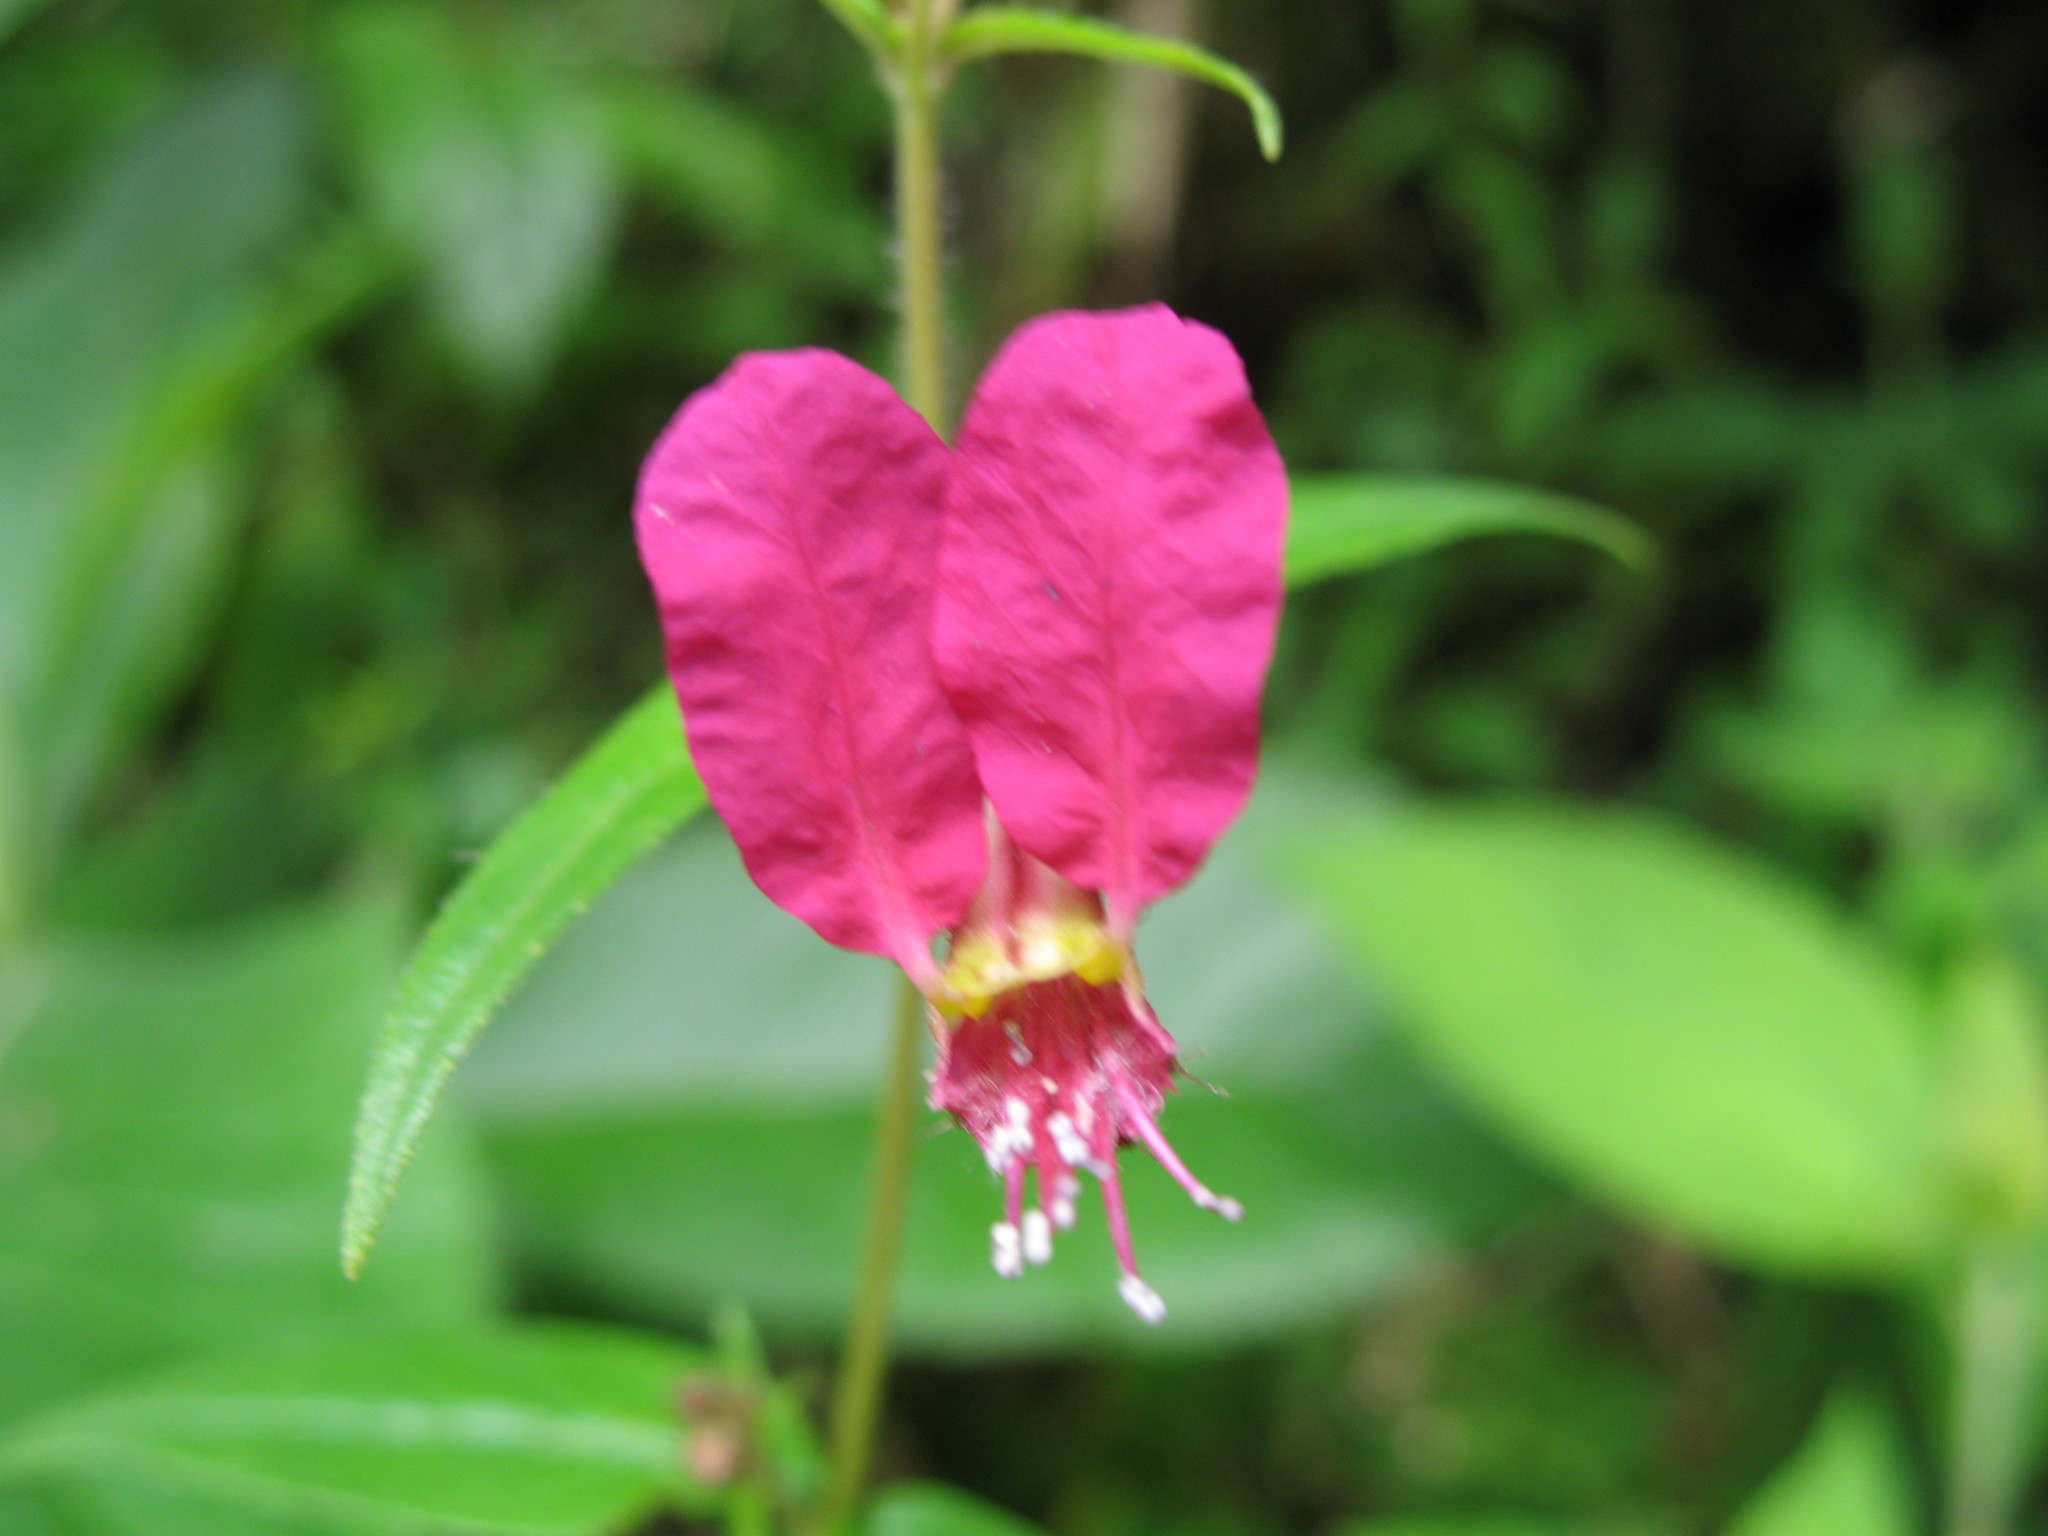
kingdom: Plantae
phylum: Tracheophyta
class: Magnoliopsida
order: Myrtales
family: Lythraceae
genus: Cuphea
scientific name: Cuphea cordata
